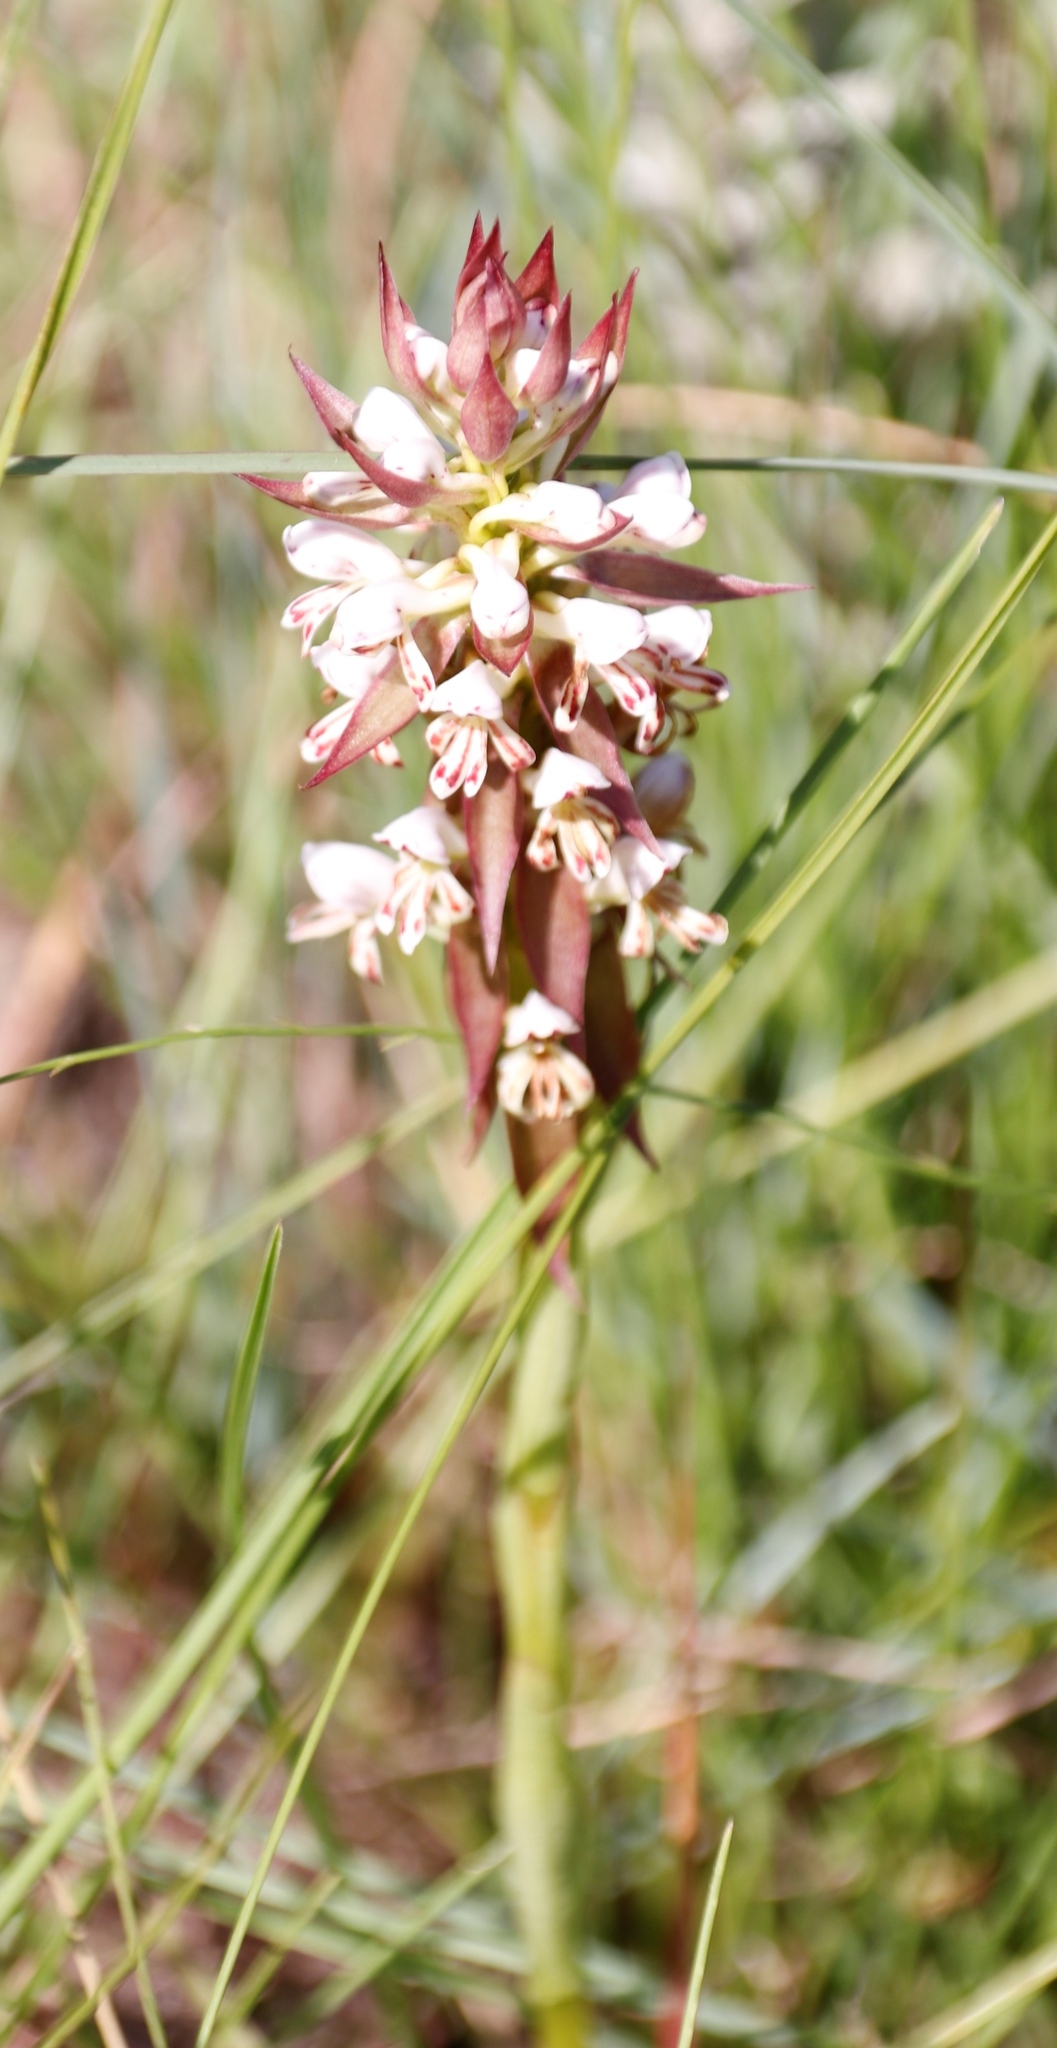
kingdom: Plantae
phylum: Tracheophyta
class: Liliopsida
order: Asparagales
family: Orchidaceae
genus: Satyrium
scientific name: Satyrium cristatum
